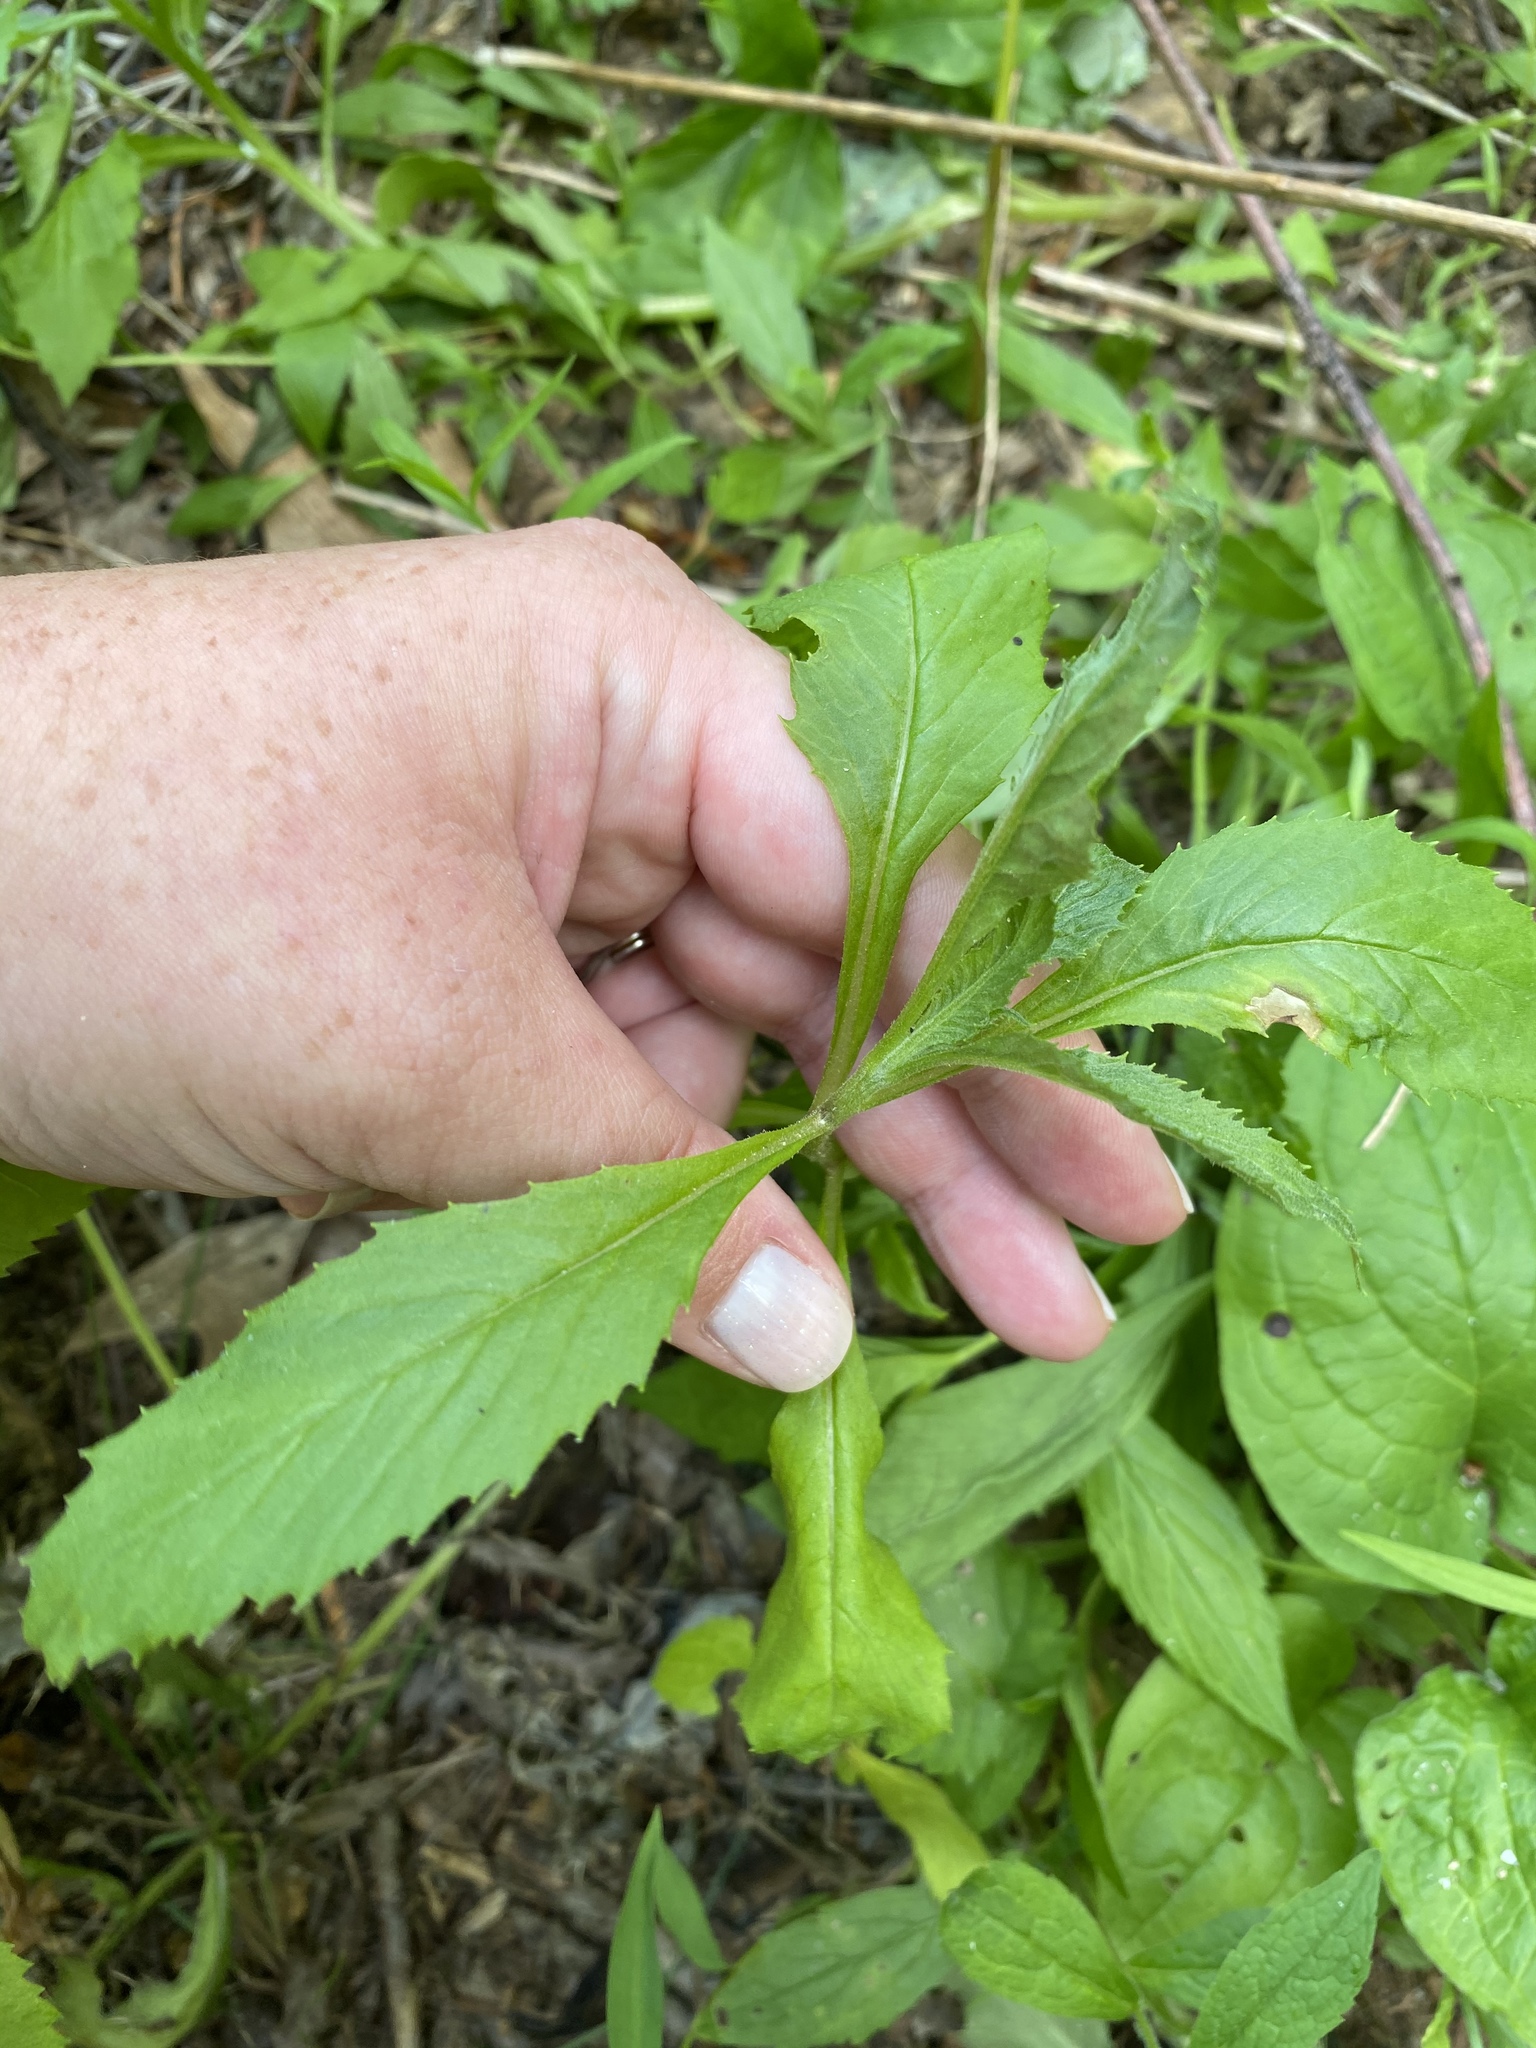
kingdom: Animalia
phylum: Arthropoda
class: Insecta
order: Diptera
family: Cecidomyiidae
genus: Neolasioptera
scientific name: Neolasioptera
